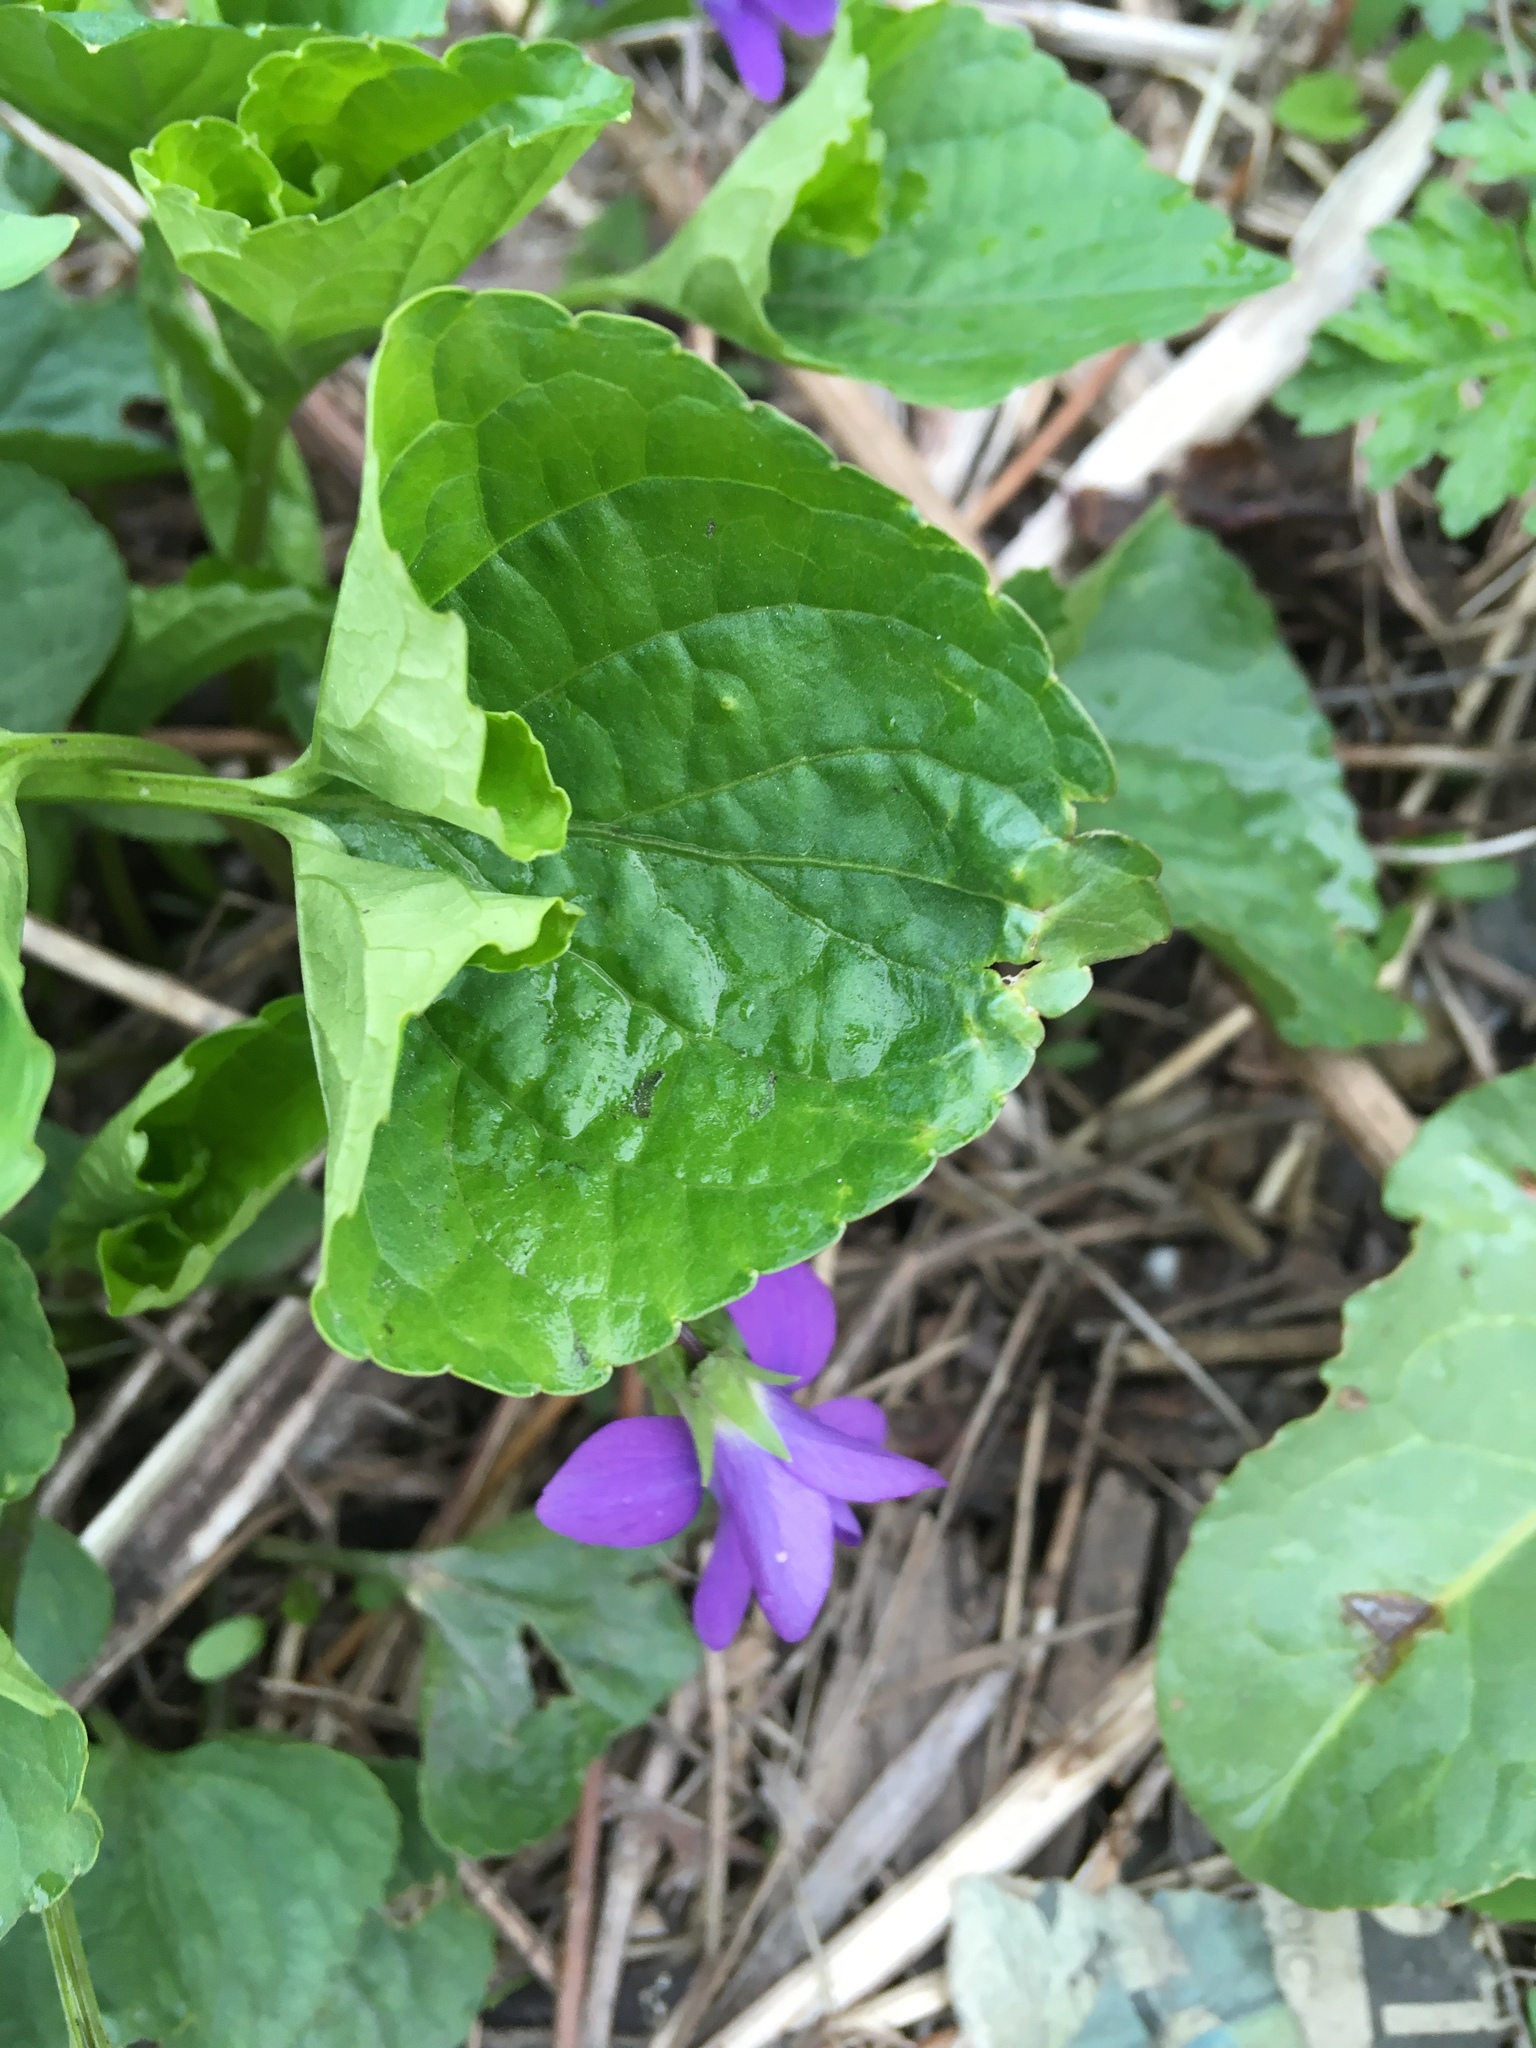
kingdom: Plantae
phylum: Tracheophyta
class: Magnoliopsida
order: Malpighiales
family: Violaceae
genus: Viola
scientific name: Viola sororia
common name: Dooryard violet
